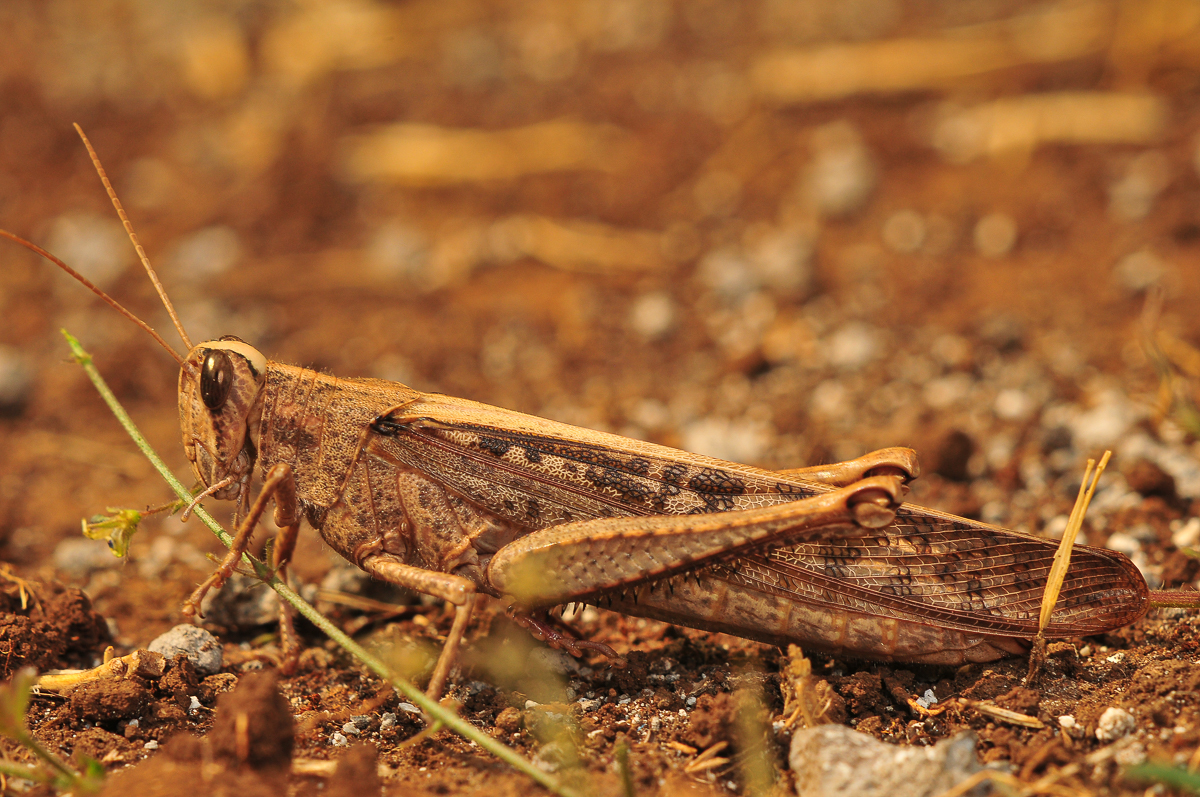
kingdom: Animalia
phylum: Arthropoda
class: Insecta
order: Orthoptera
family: Acrididae
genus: Schistocerca
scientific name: Schistocerca nitens
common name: Vagrant grasshopper
